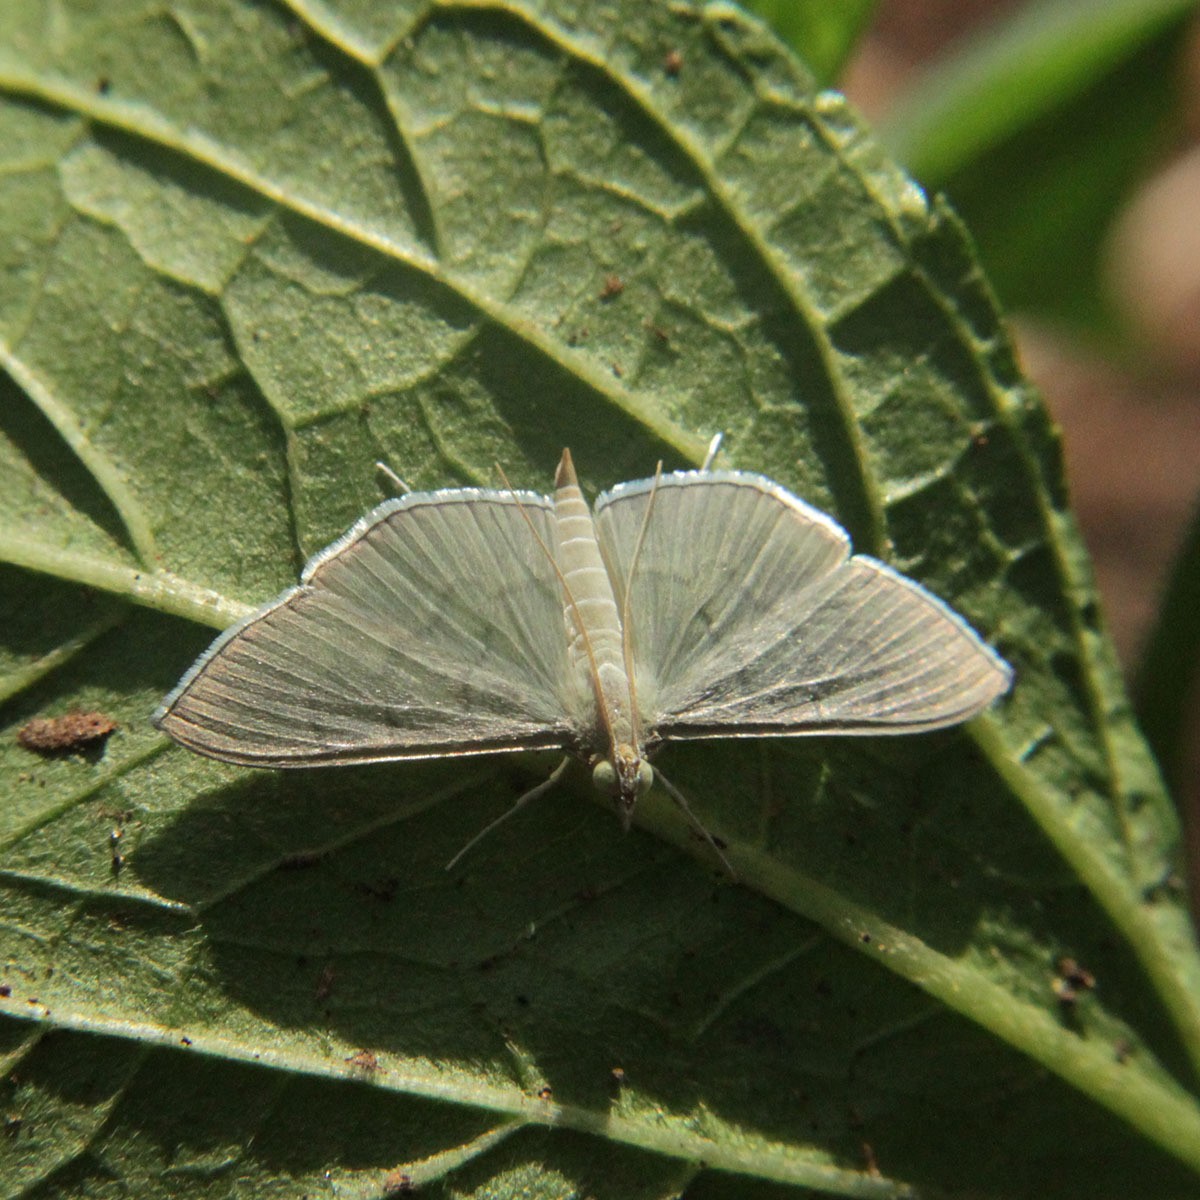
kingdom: Animalia
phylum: Arthropoda
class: Insecta
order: Lepidoptera
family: Crambidae
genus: Lamprophaia
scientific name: Lamprophaia ablactalis
